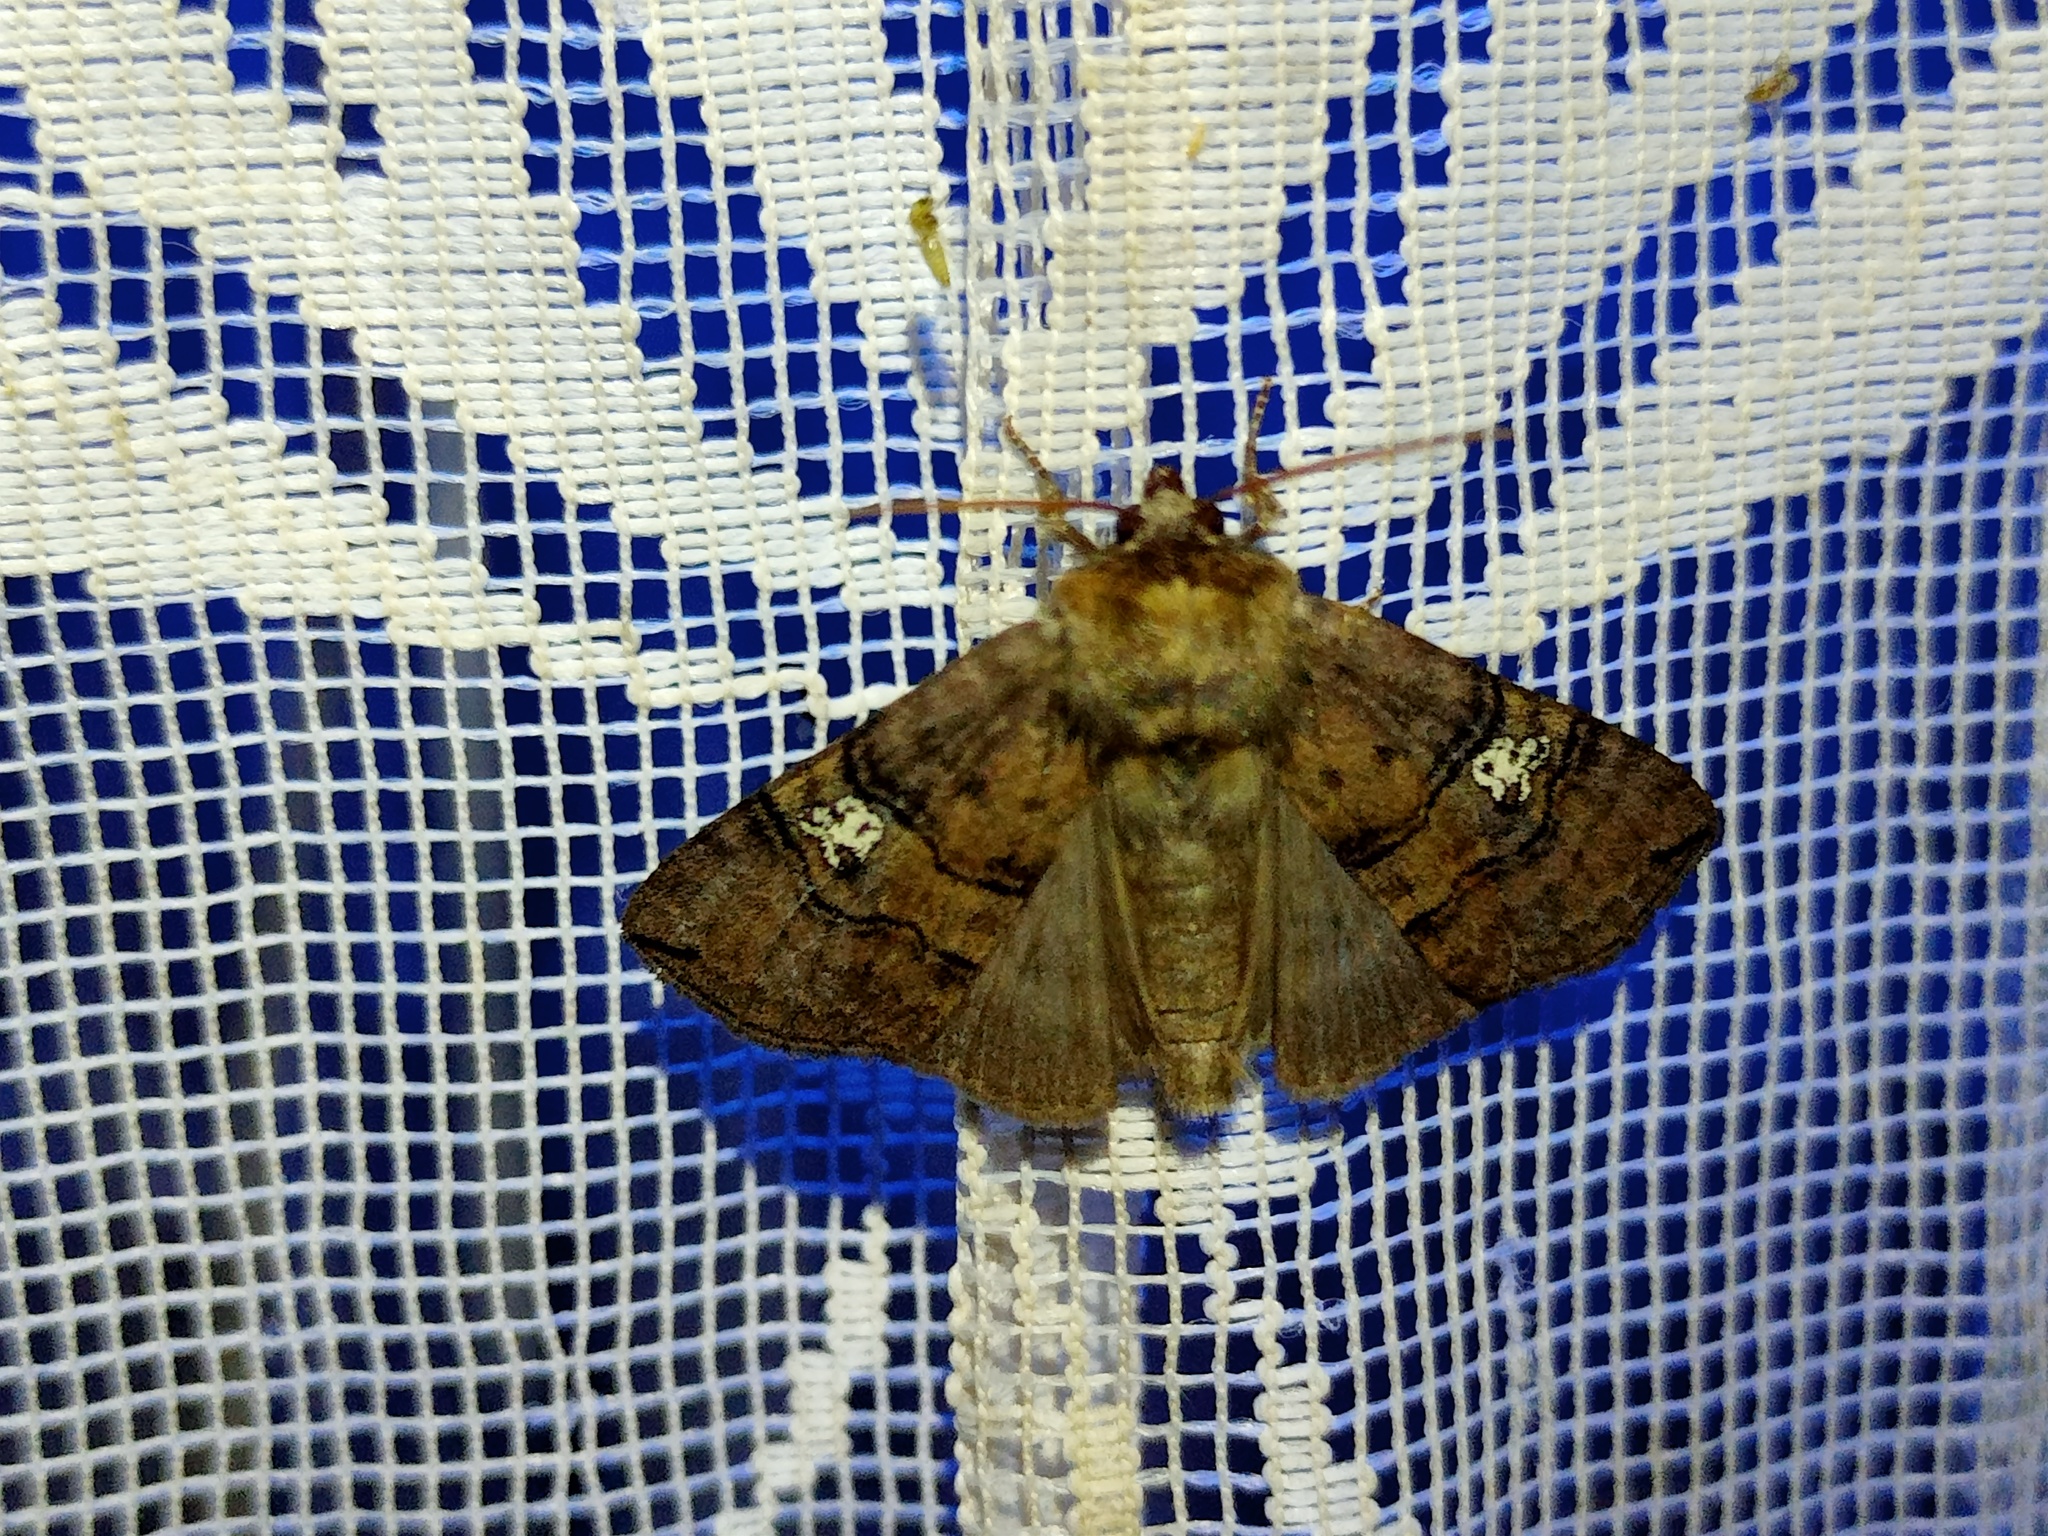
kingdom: Animalia
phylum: Arthropoda
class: Insecta
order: Lepidoptera
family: Drepanidae
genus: Tethea
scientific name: Tethea ocularis
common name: Figure of eighty
